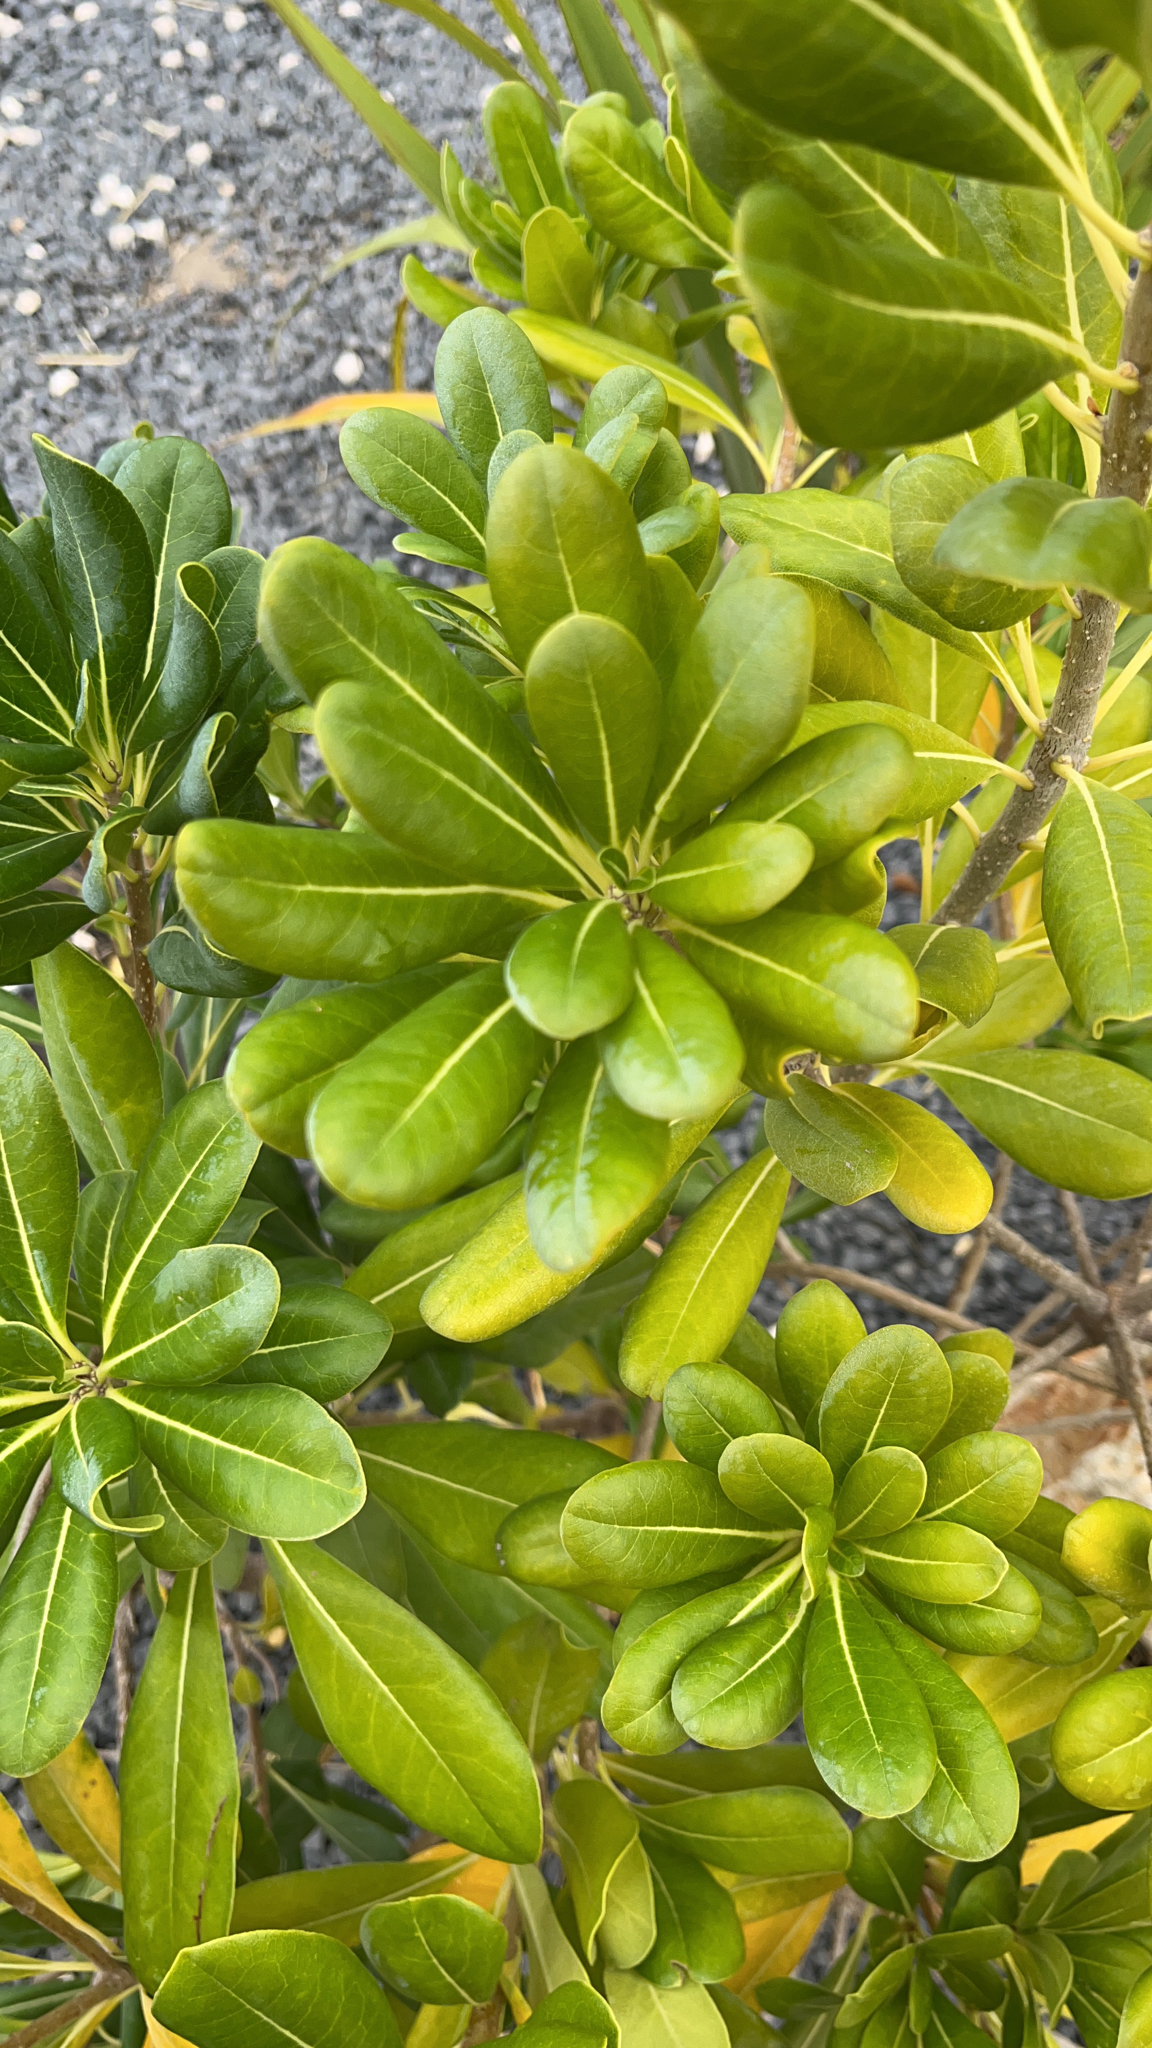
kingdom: Plantae
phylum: Tracheophyta
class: Magnoliopsida
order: Apiales
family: Pittosporaceae
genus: Pittosporum
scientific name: Pittosporum tobira
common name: Japanese cheesewood
